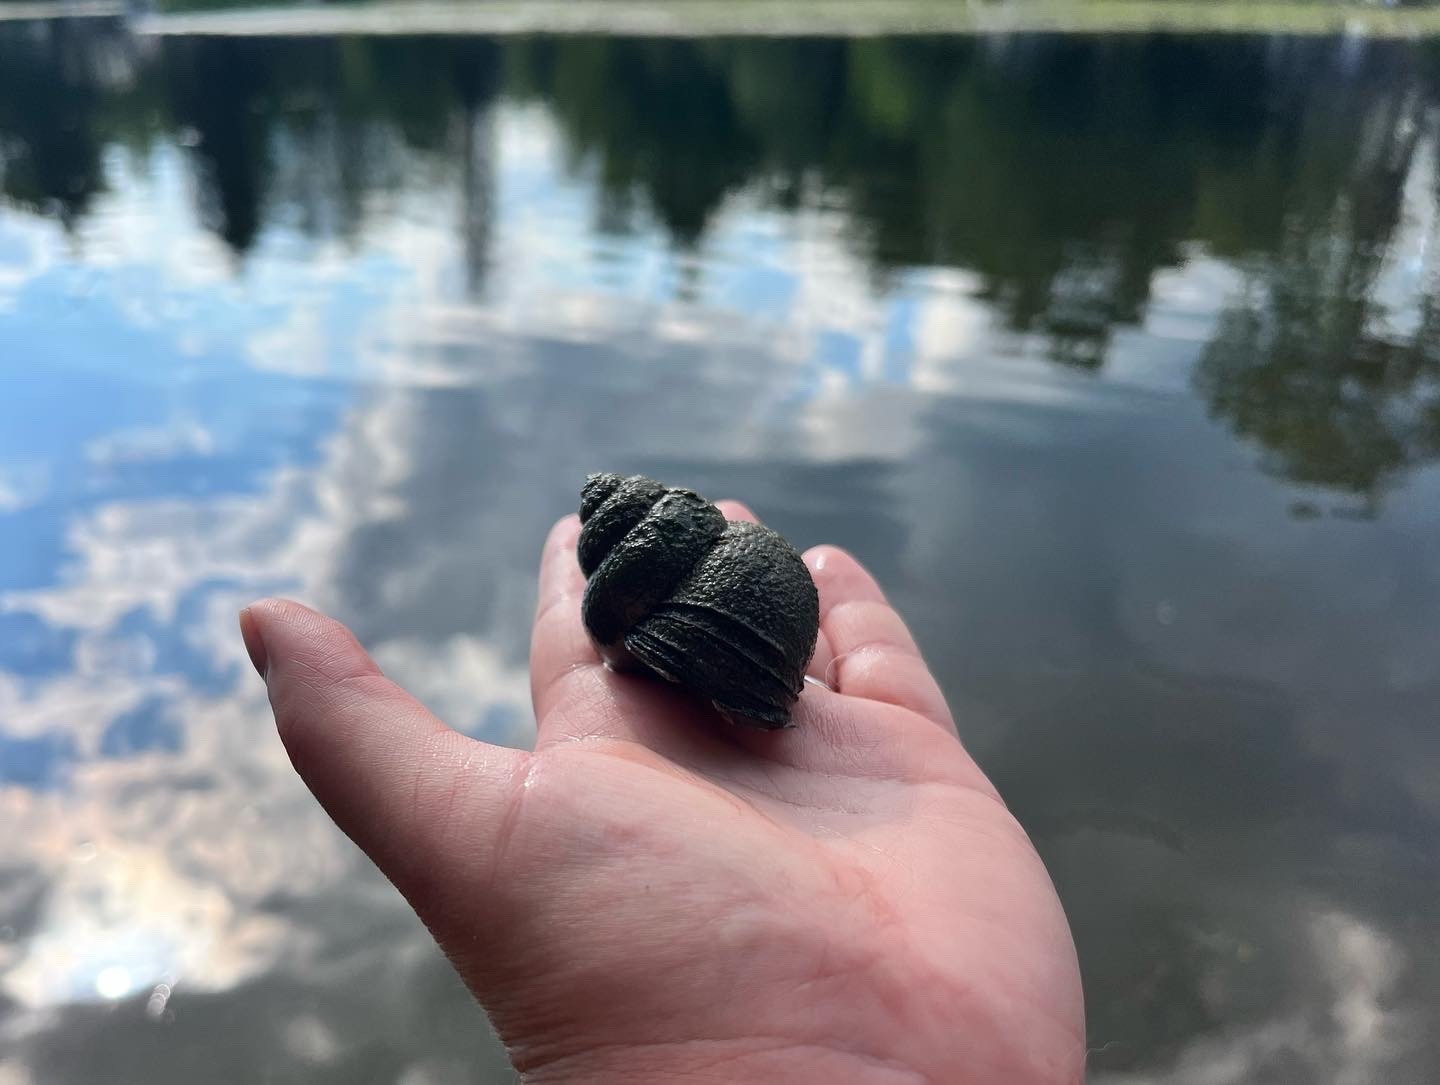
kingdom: Animalia
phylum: Mollusca
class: Gastropoda
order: Architaenioglossa
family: Viviparidae
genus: Cipangopaludina
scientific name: Cipangopaludina chinensis
